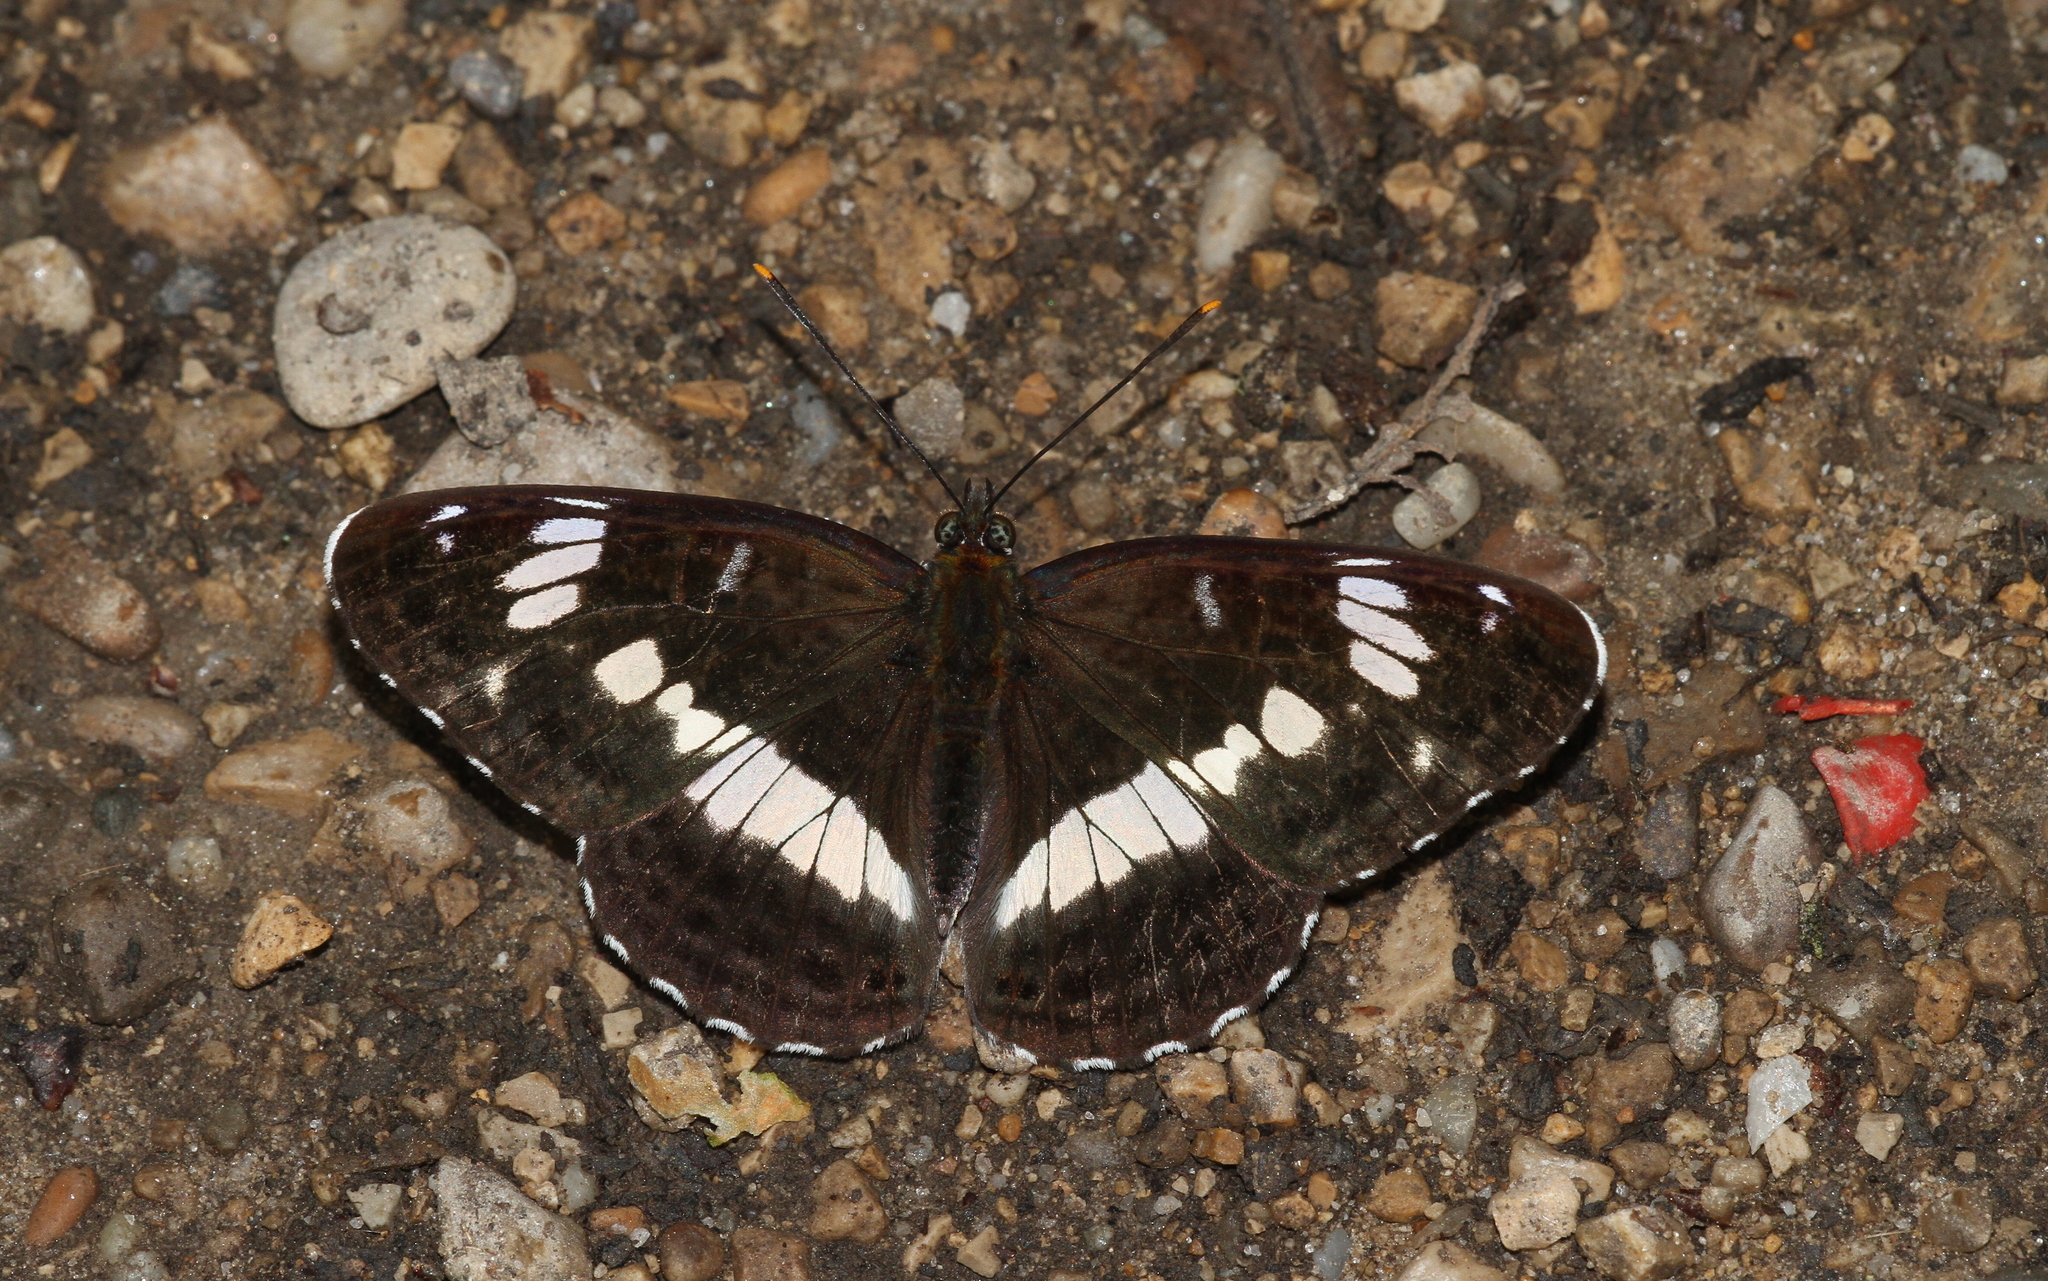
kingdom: Animalia
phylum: Arthropoda
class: Insecta
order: Lepidoptera
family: Nymphalidae
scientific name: Nymphalidae
